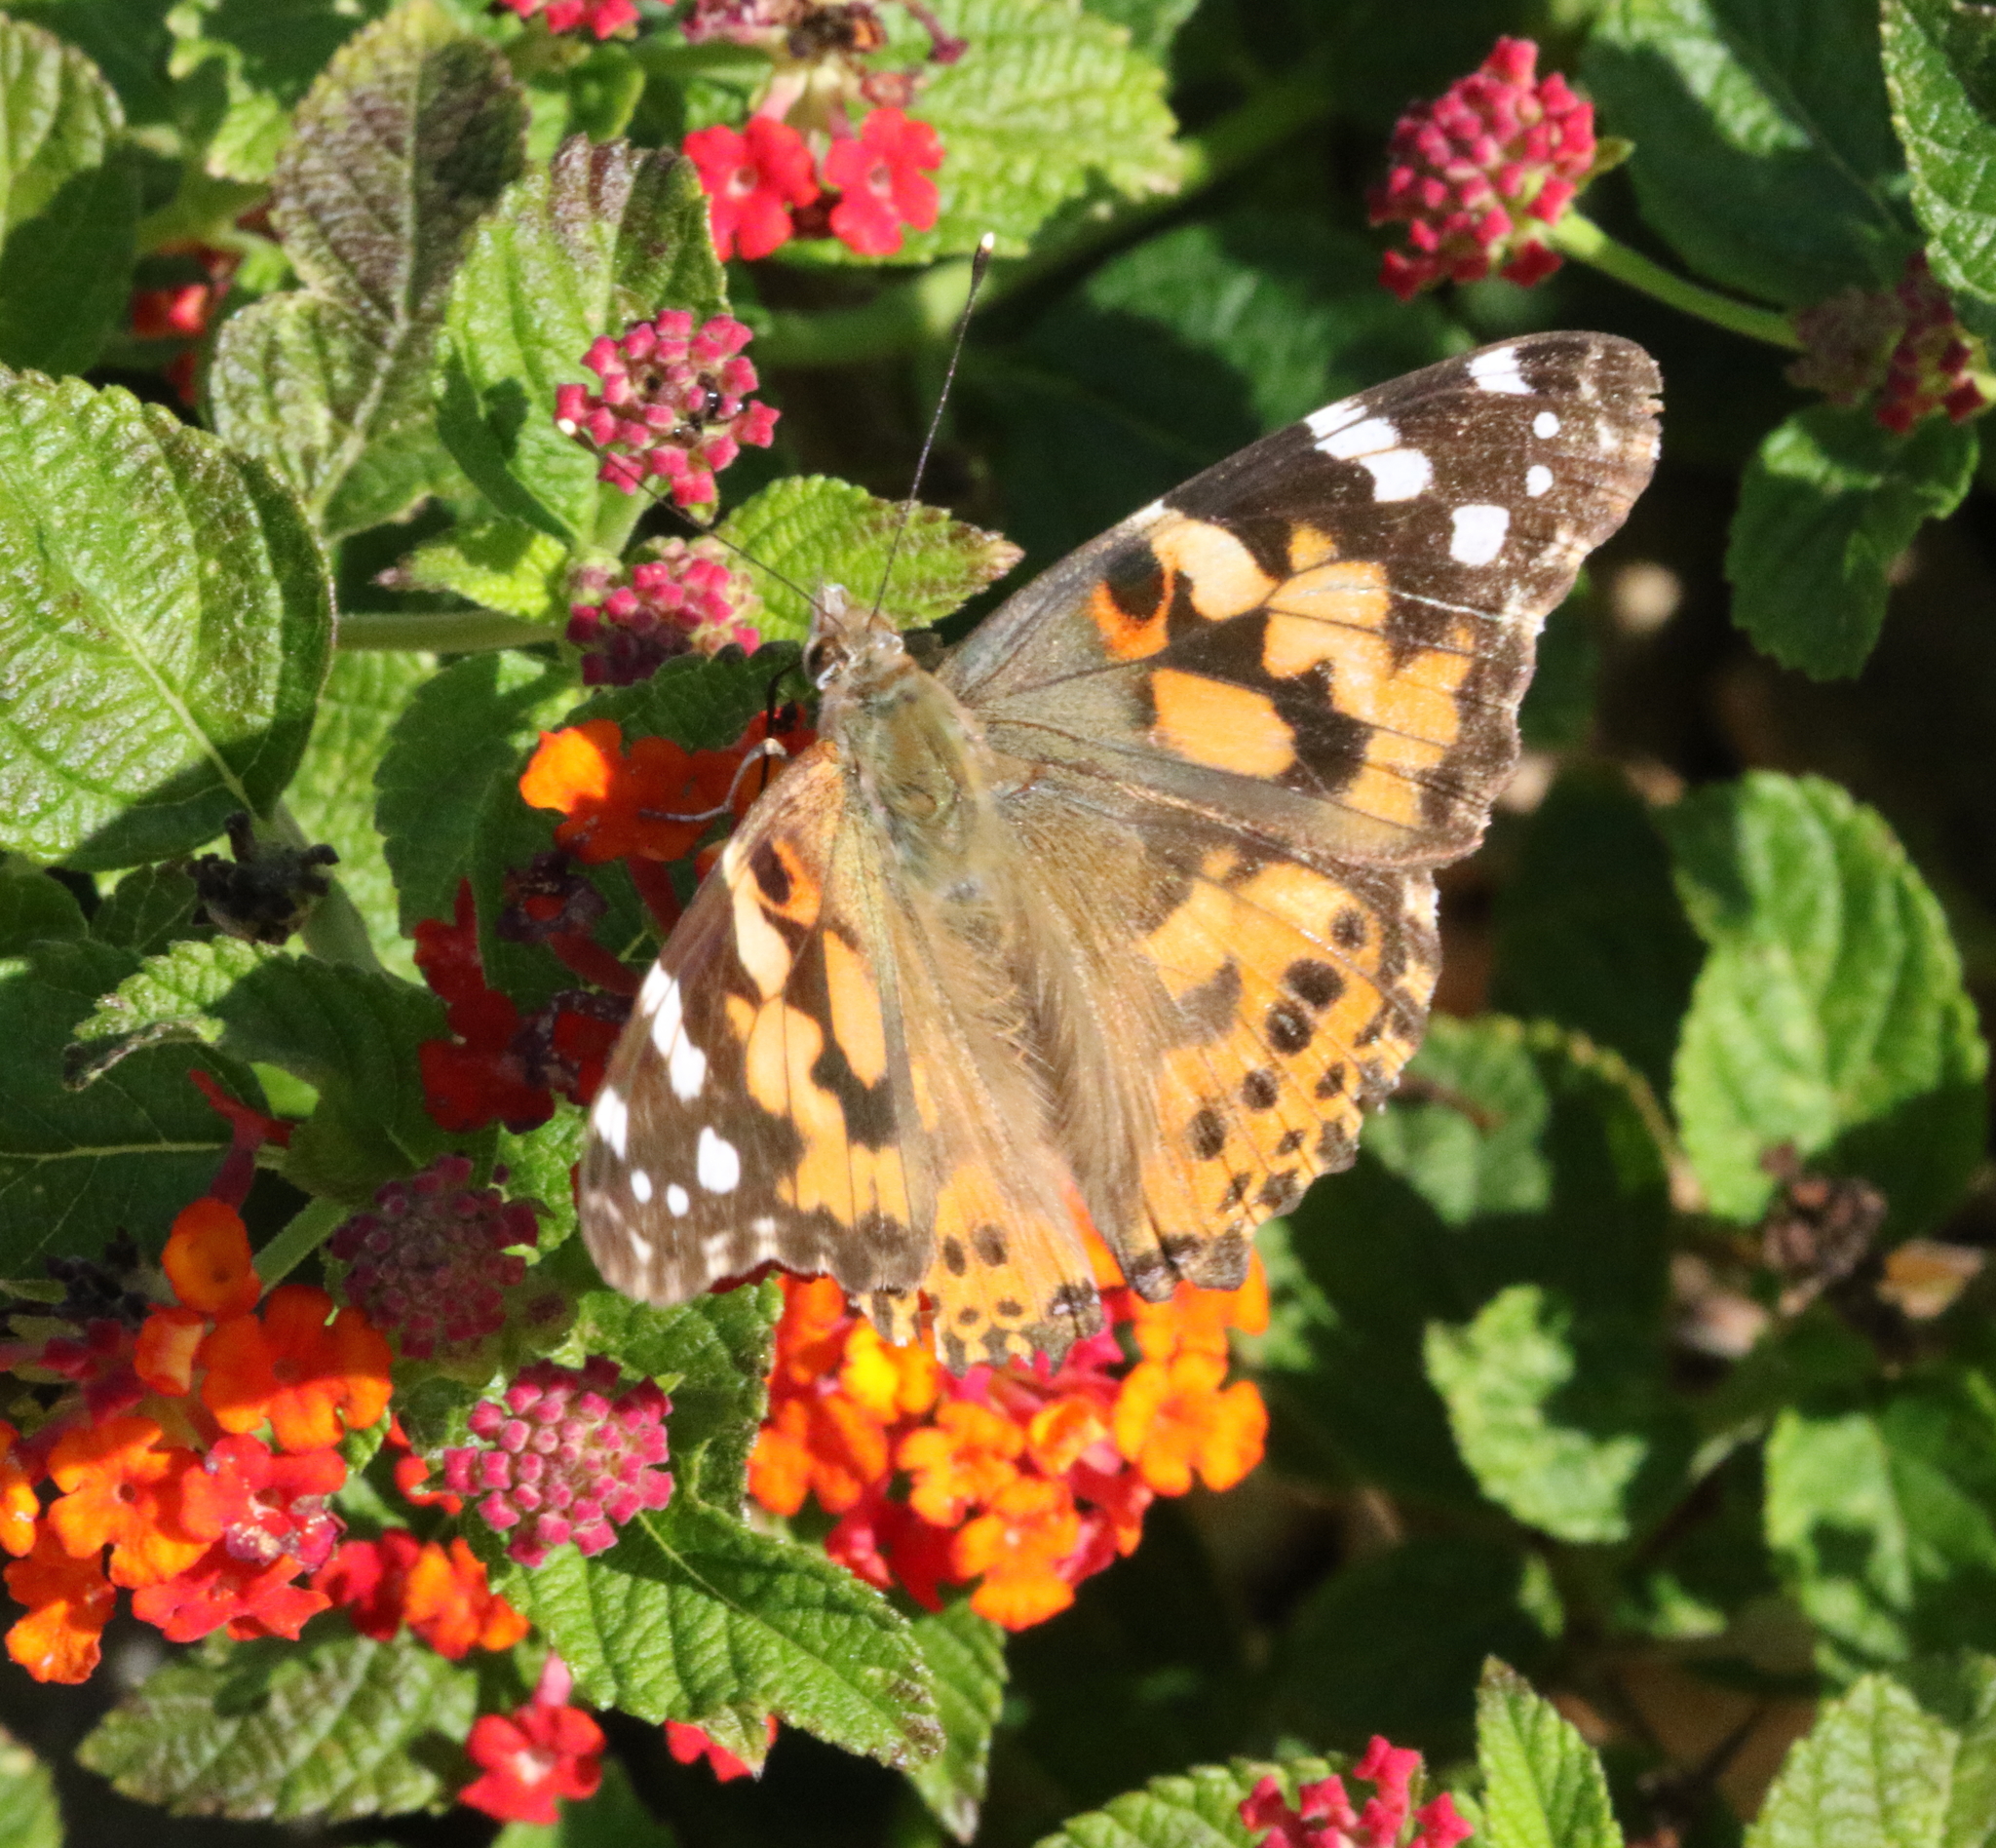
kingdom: Animalia
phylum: Arthropoda
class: Insecta
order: Lepidoptera
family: Nymphalidae
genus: Vanessa
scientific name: Vanessa cardui
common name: Painted lady
